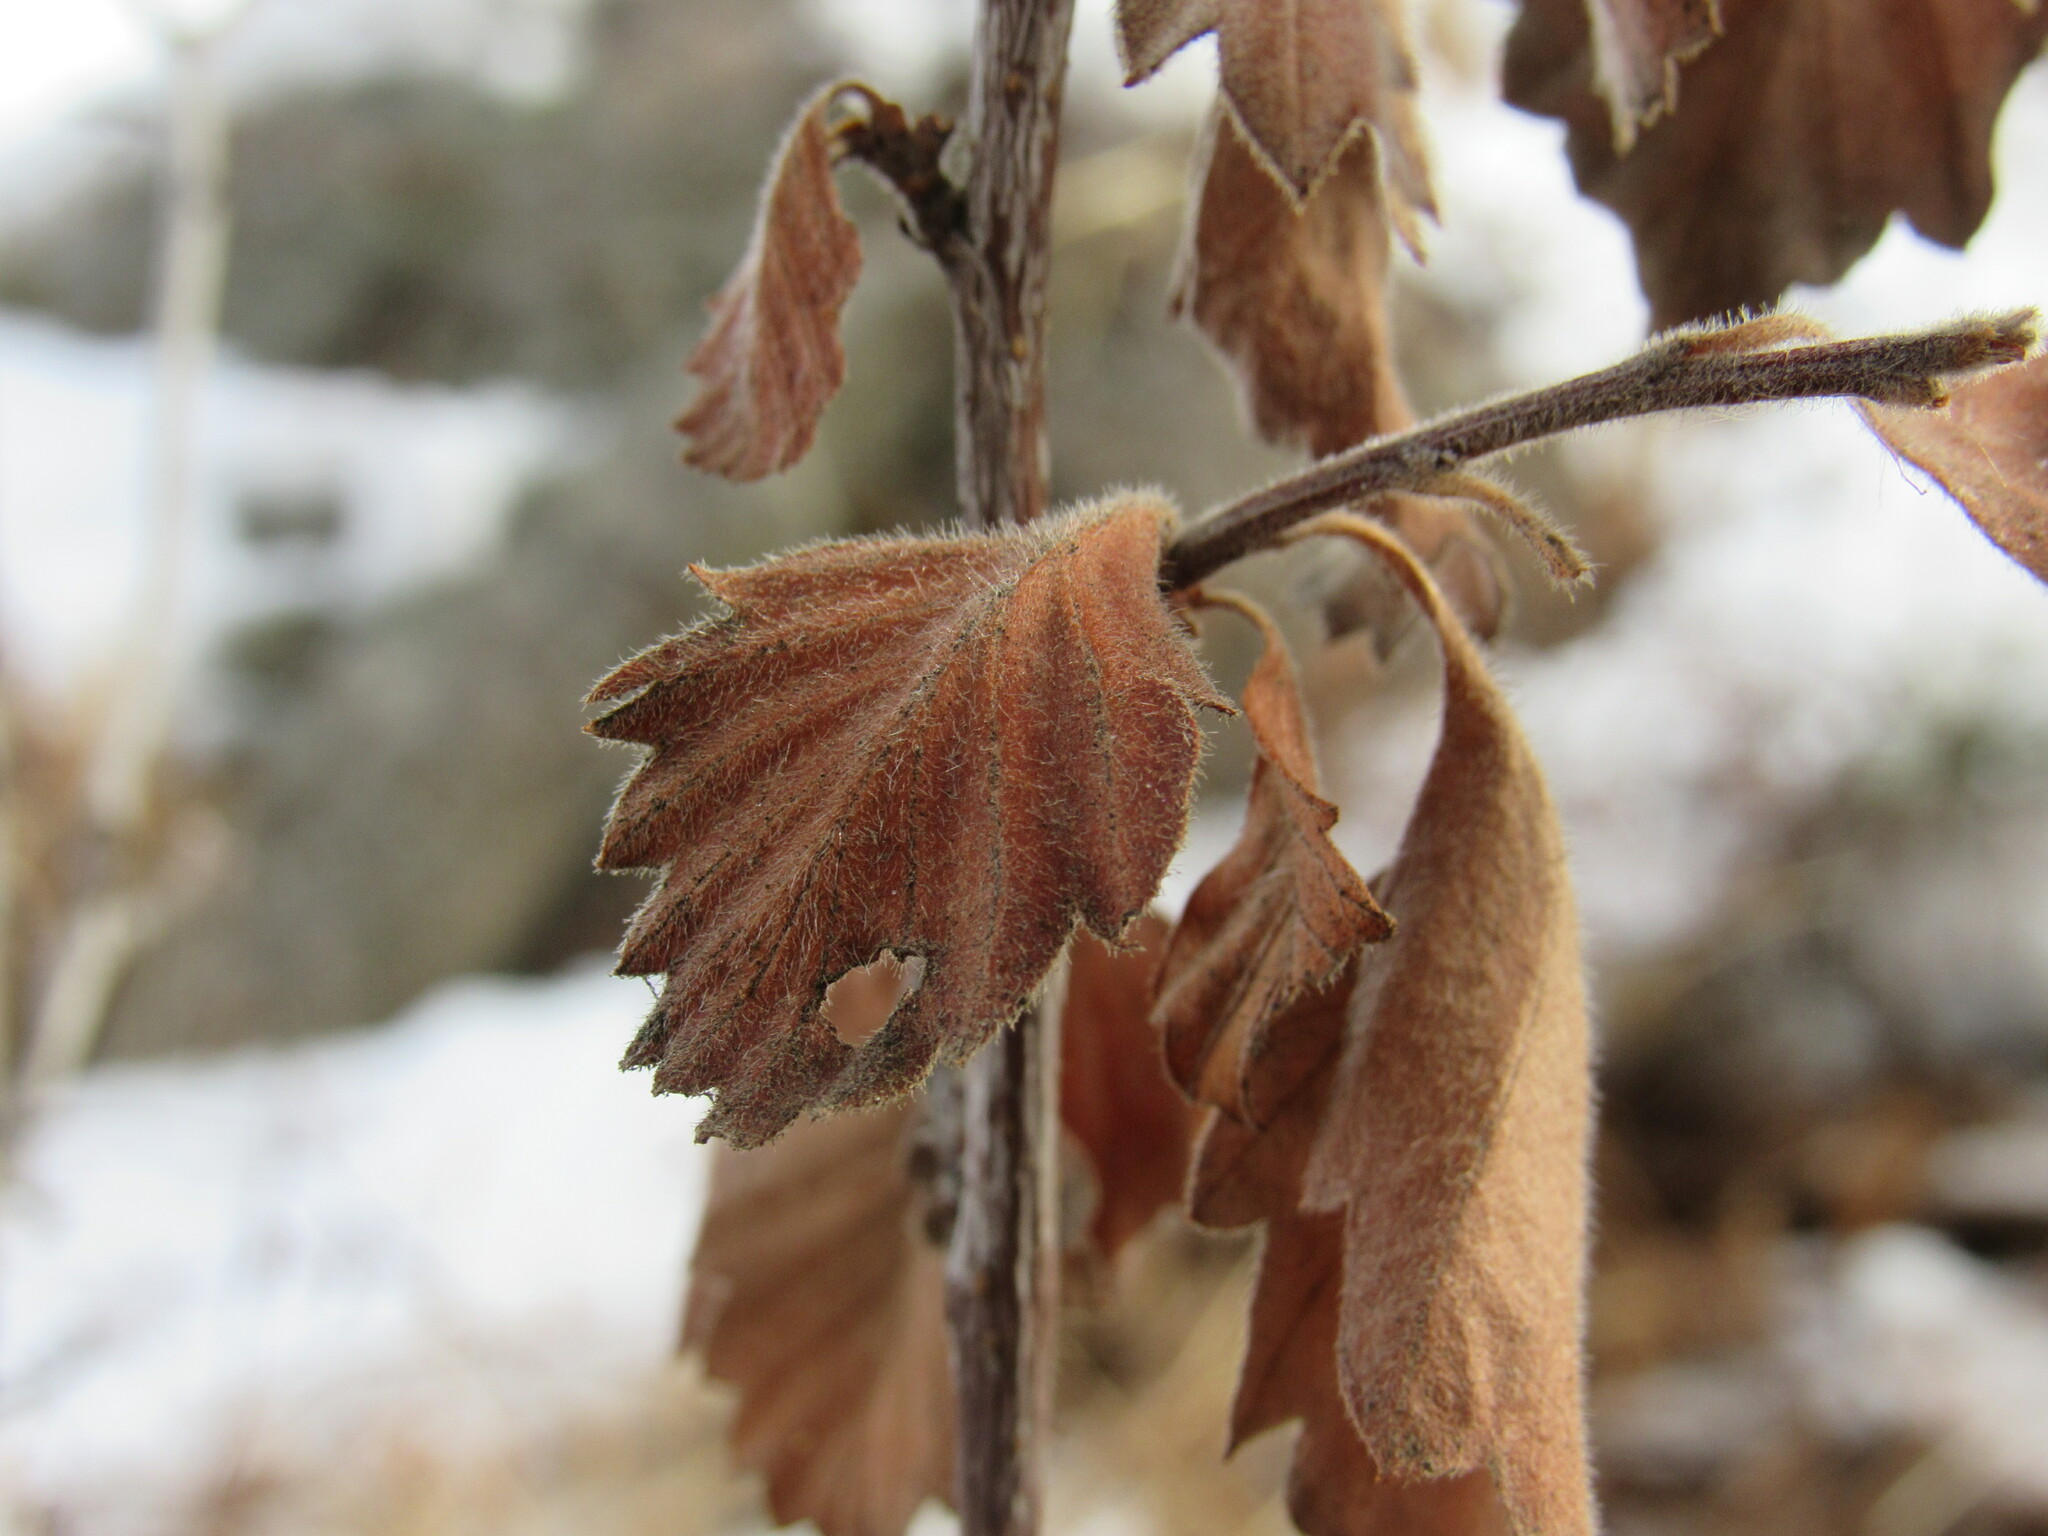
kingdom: Plantae
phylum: Tracheophyta
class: Magnoliopsida
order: Rosales
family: Rosaceae
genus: Cercocarpus
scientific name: Cercocarpus montanus
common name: Alder-leaf cercocarpus
